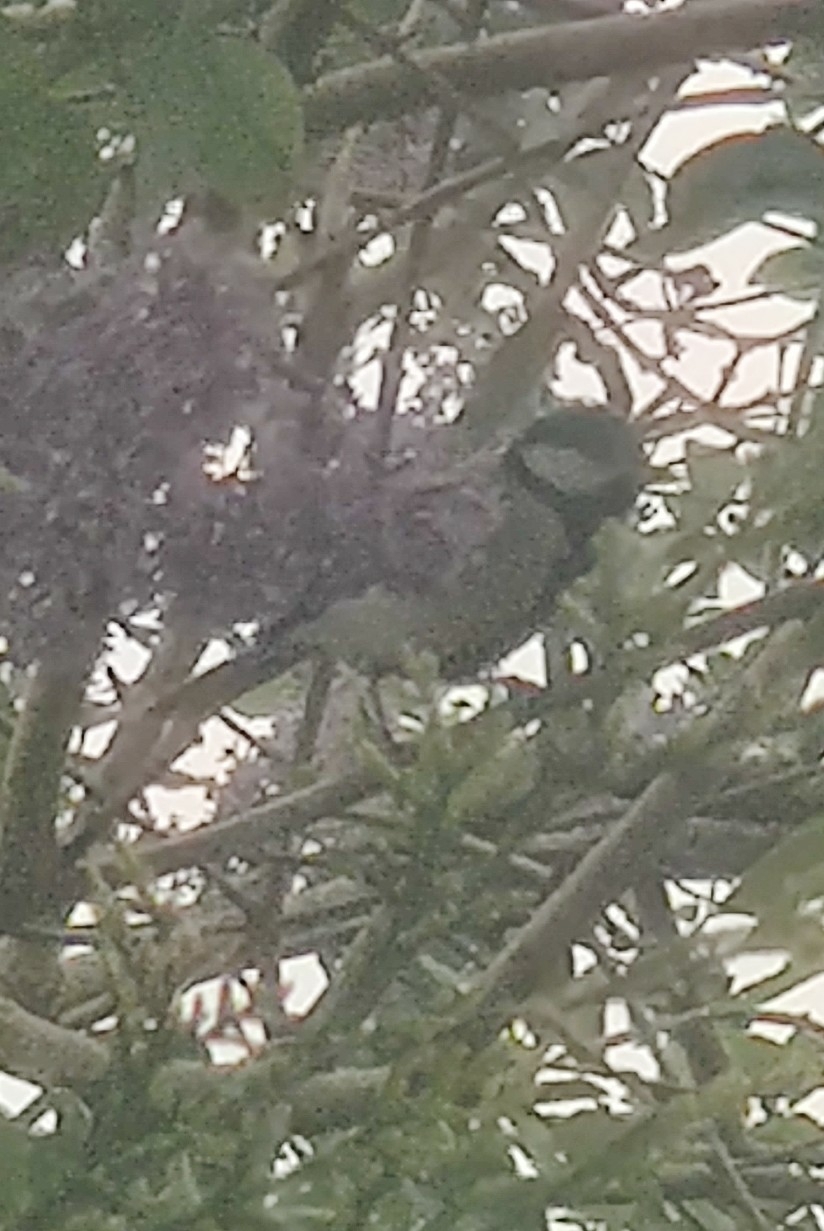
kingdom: Animalia
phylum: Chordata
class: Aves
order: Passeriformes
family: Paridae
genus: Parus
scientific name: Parus major
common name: Great tit
